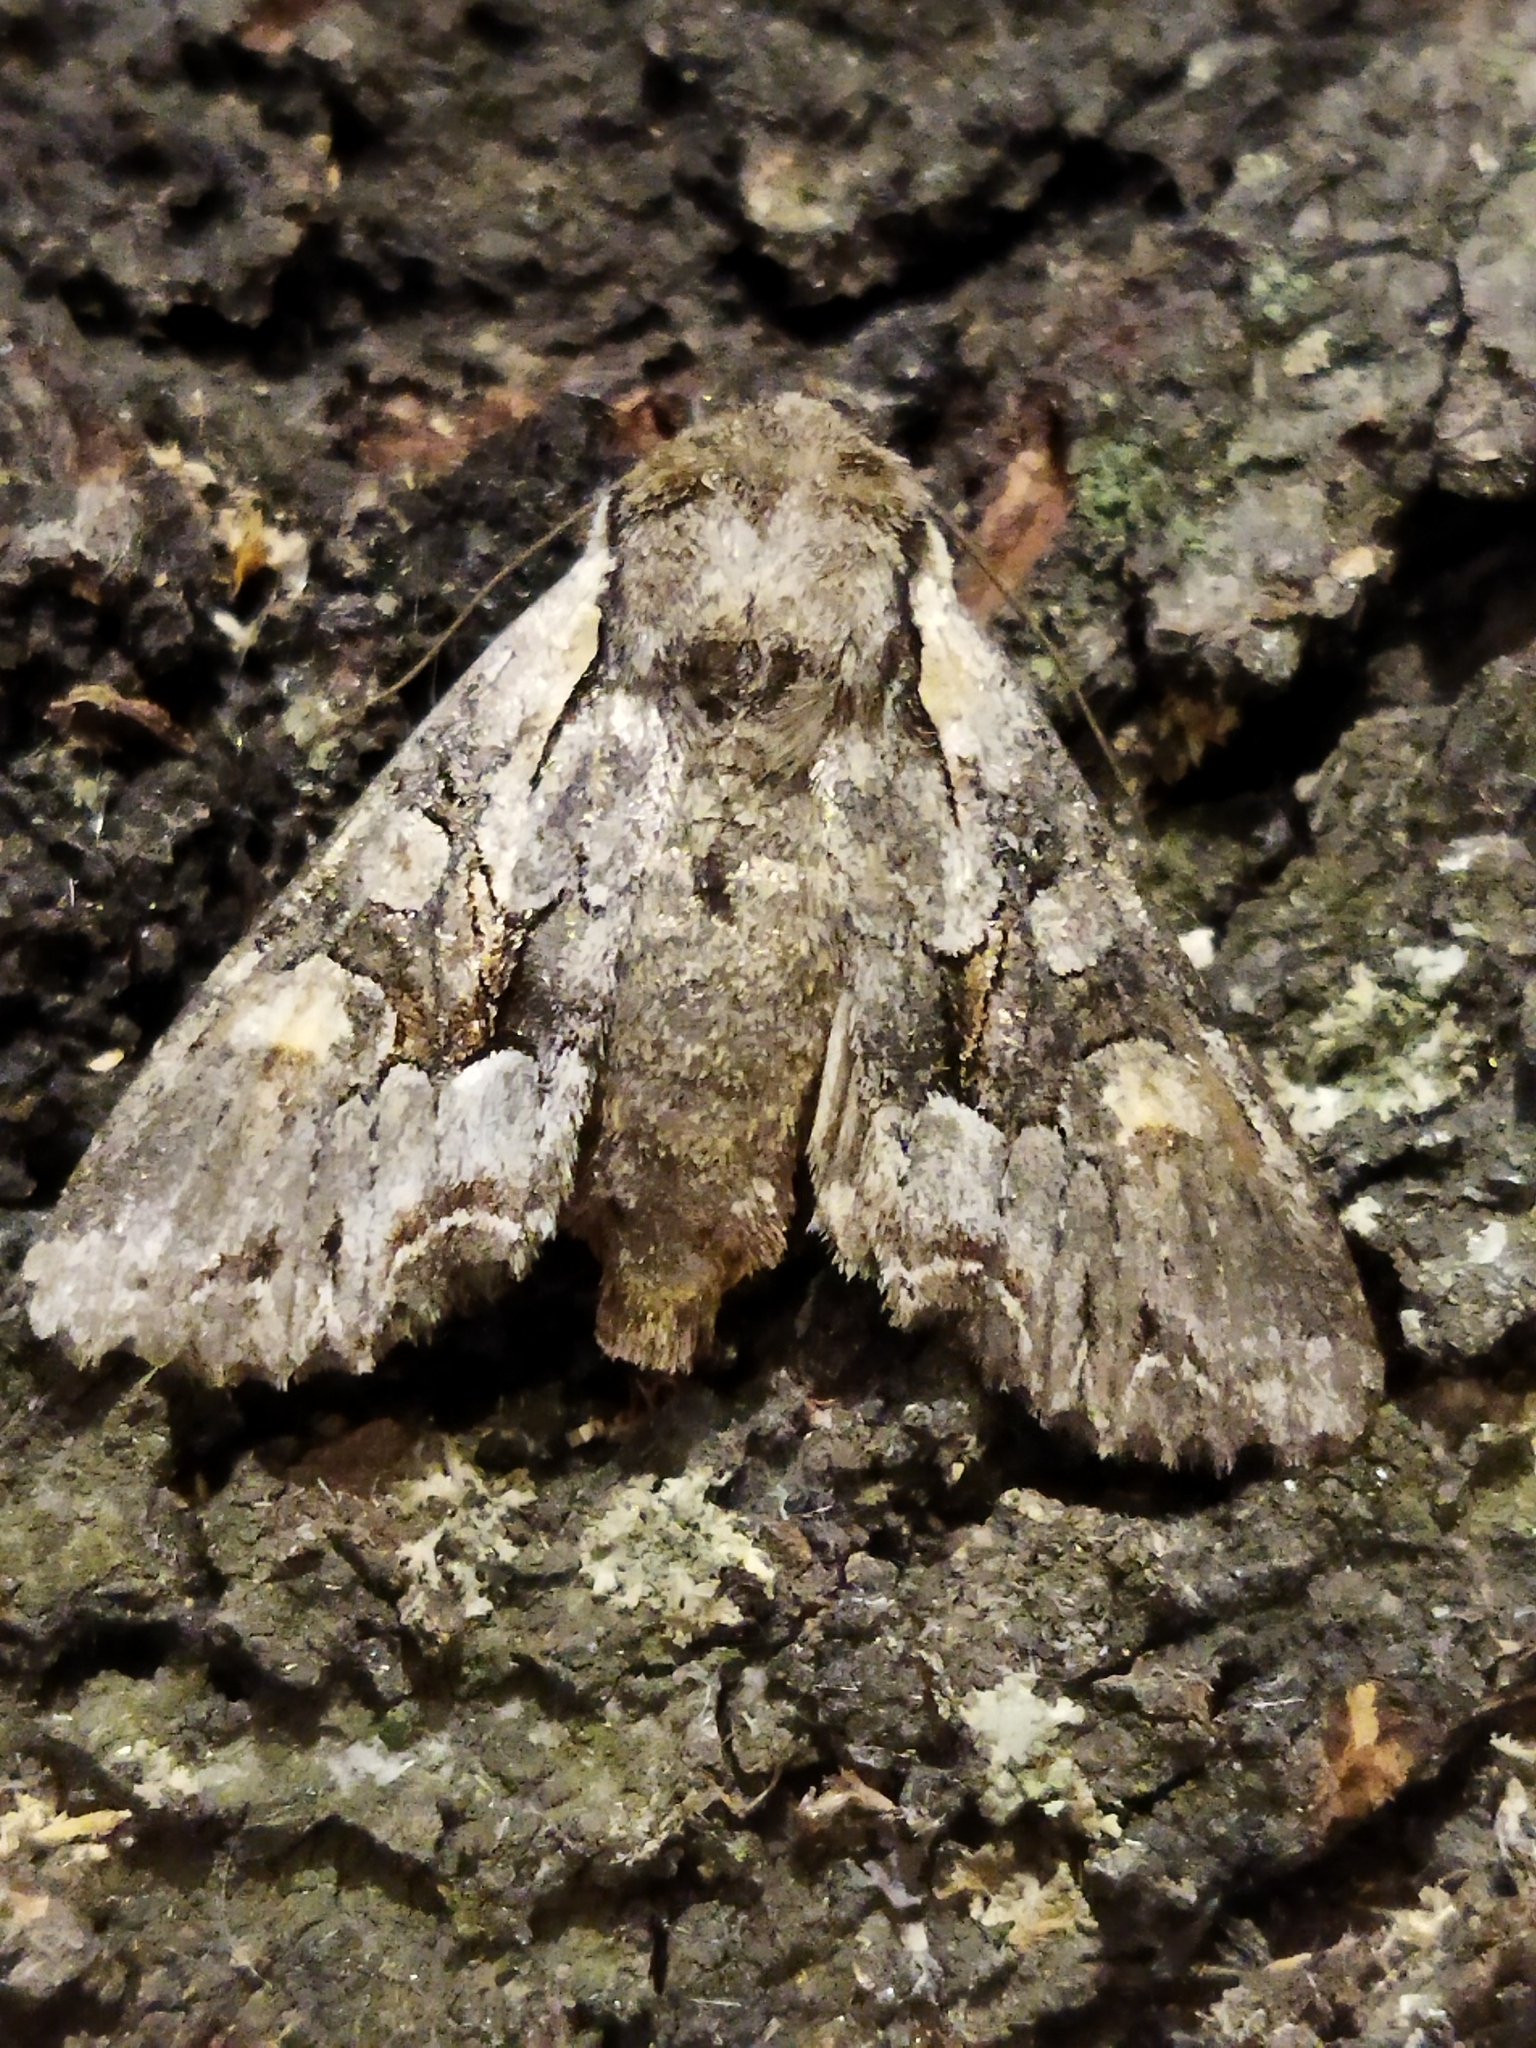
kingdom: Animalia
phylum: Arthropoda
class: Insecta
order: Lepidoptera
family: Noctuidae
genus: Lacanobia
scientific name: Lacanobia w-latinum
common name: Light brocade
